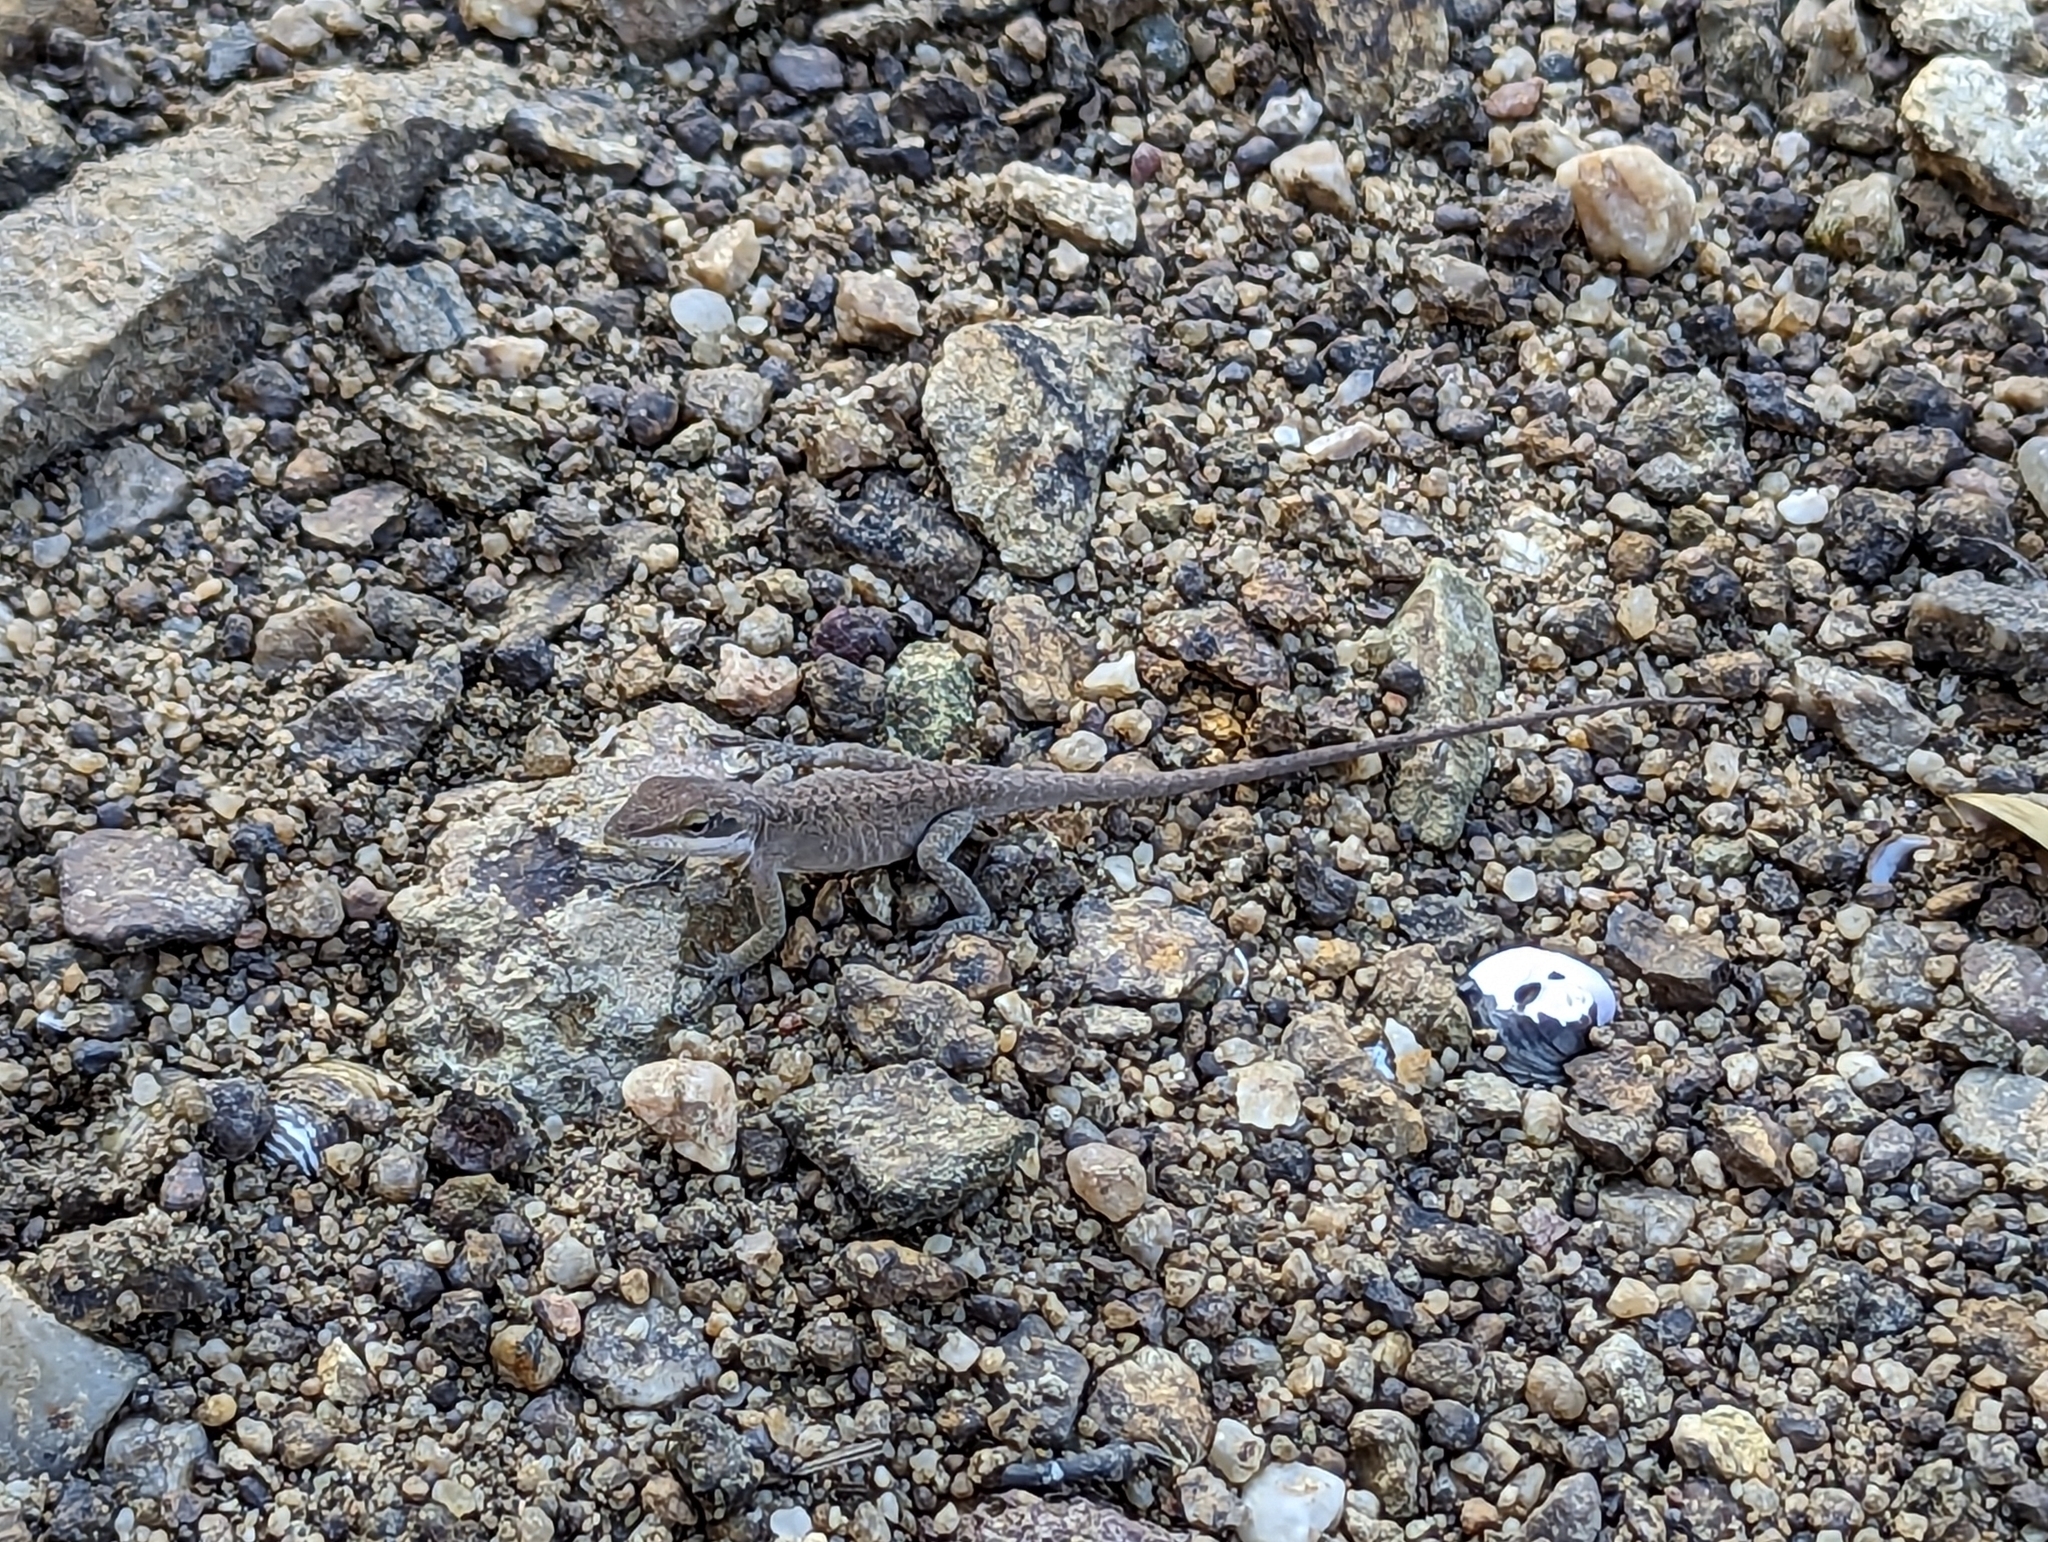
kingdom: Animalia
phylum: Chordata
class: Squamata
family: Dactyloidae
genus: Anolis
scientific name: Anolis carolinensis
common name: Green anole
